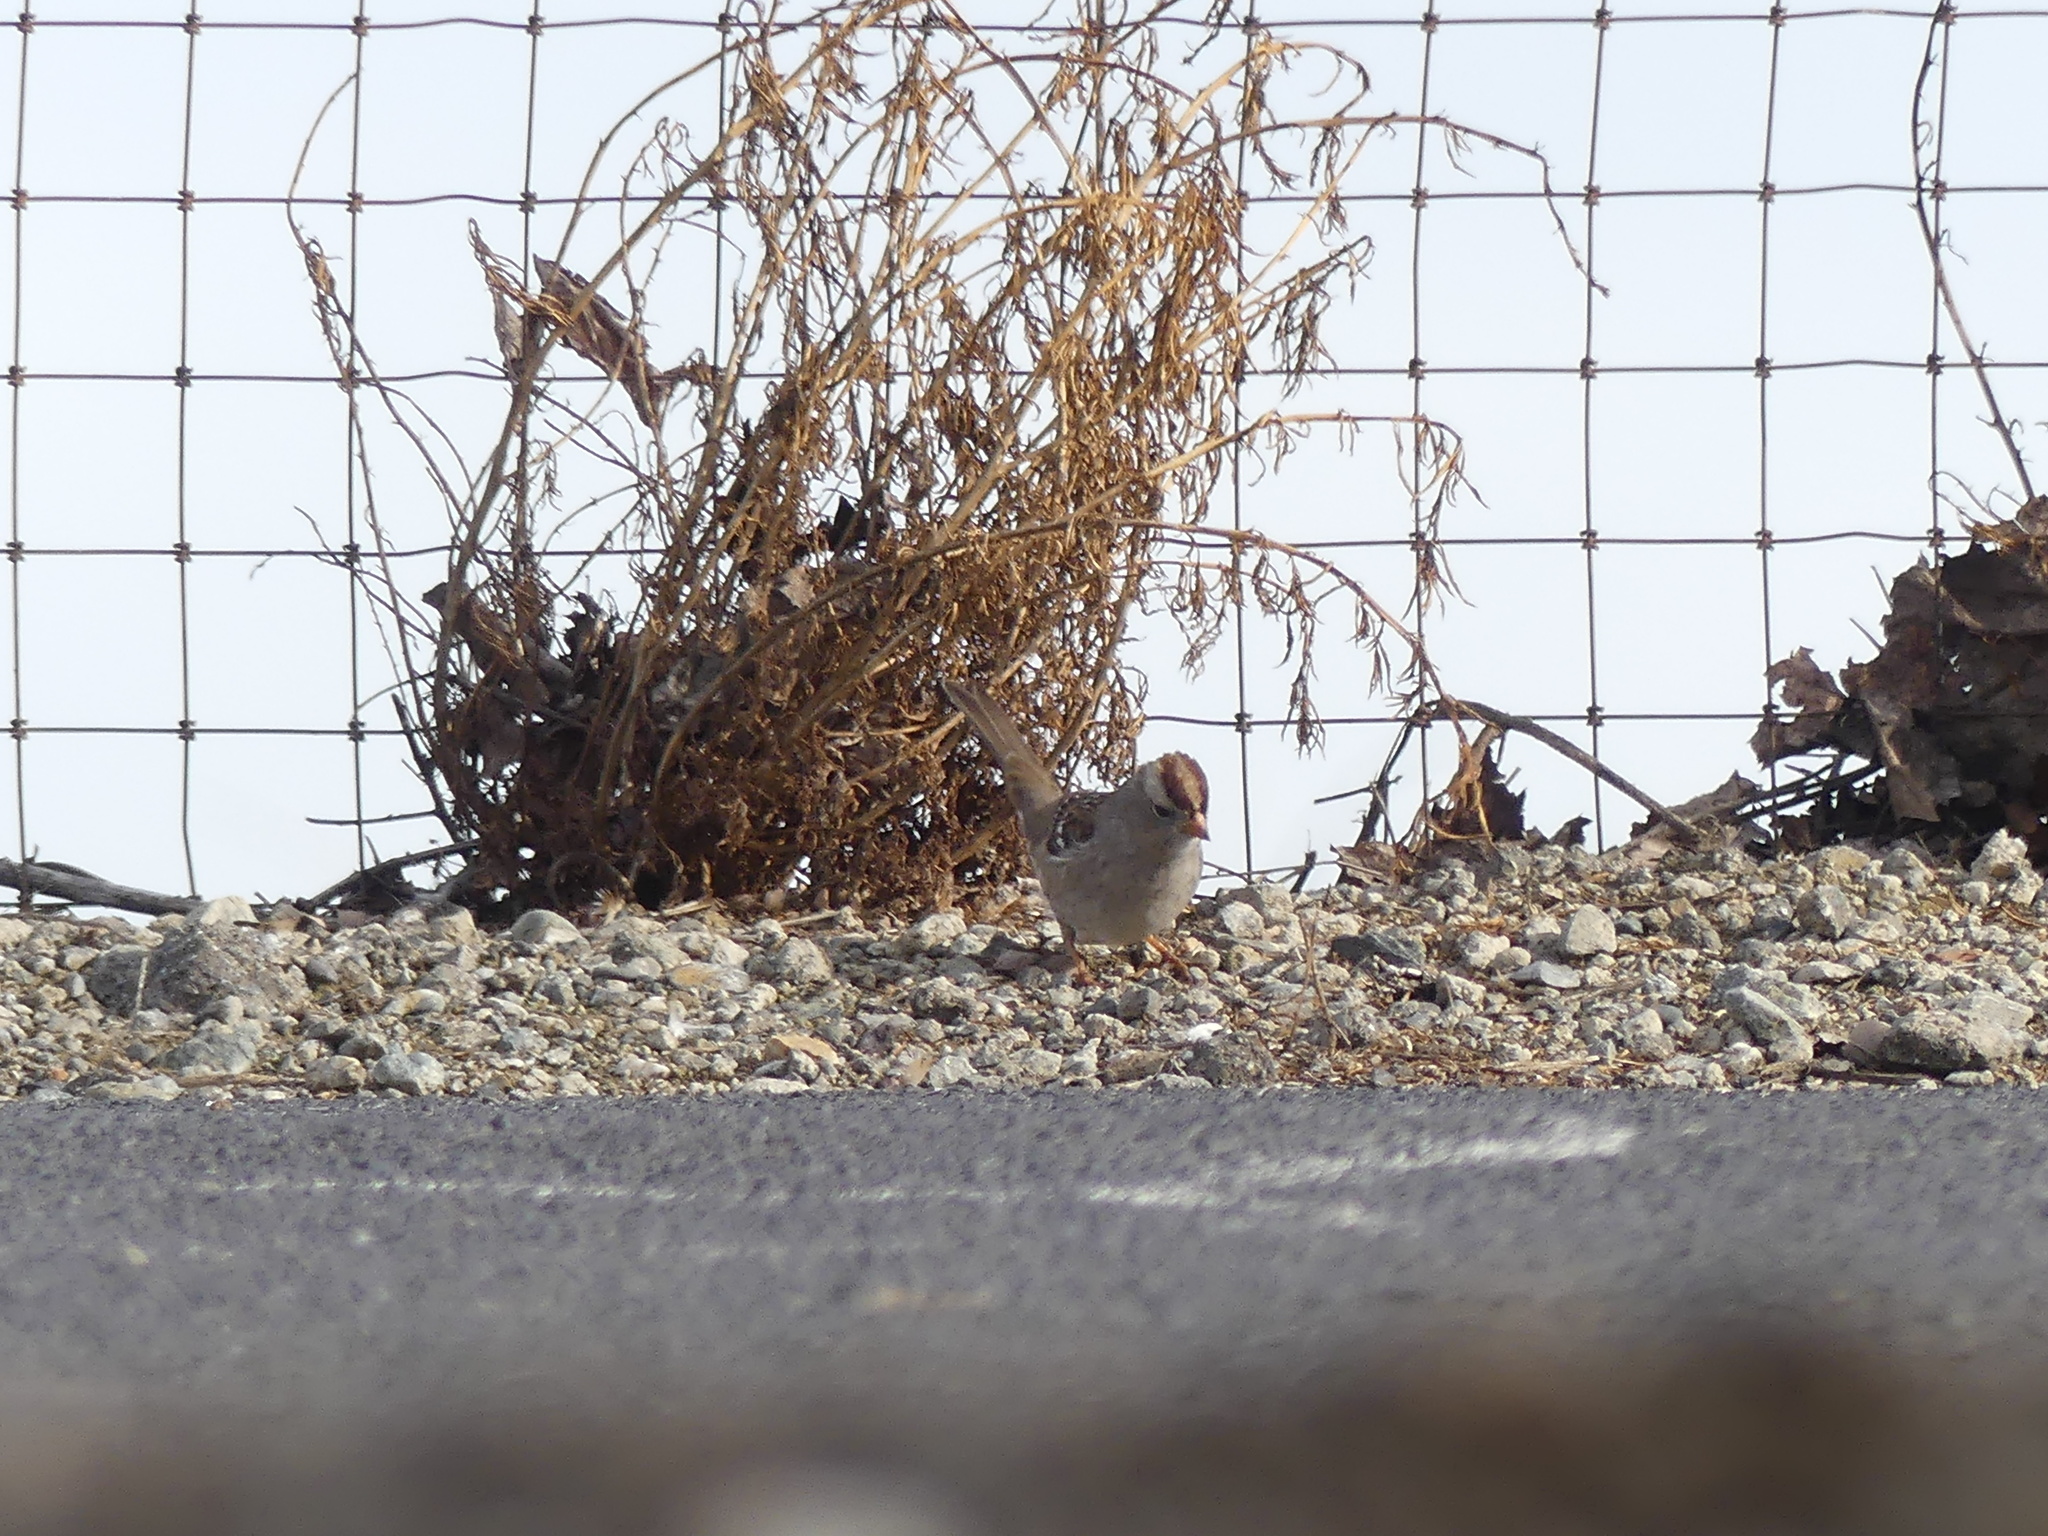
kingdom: Animalia
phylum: Chordata
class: Aves
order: Passeriformes
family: Passerellidae
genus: Zonotrichia
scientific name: Zonotrichia leucophrys
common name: White-crowned sparrow
